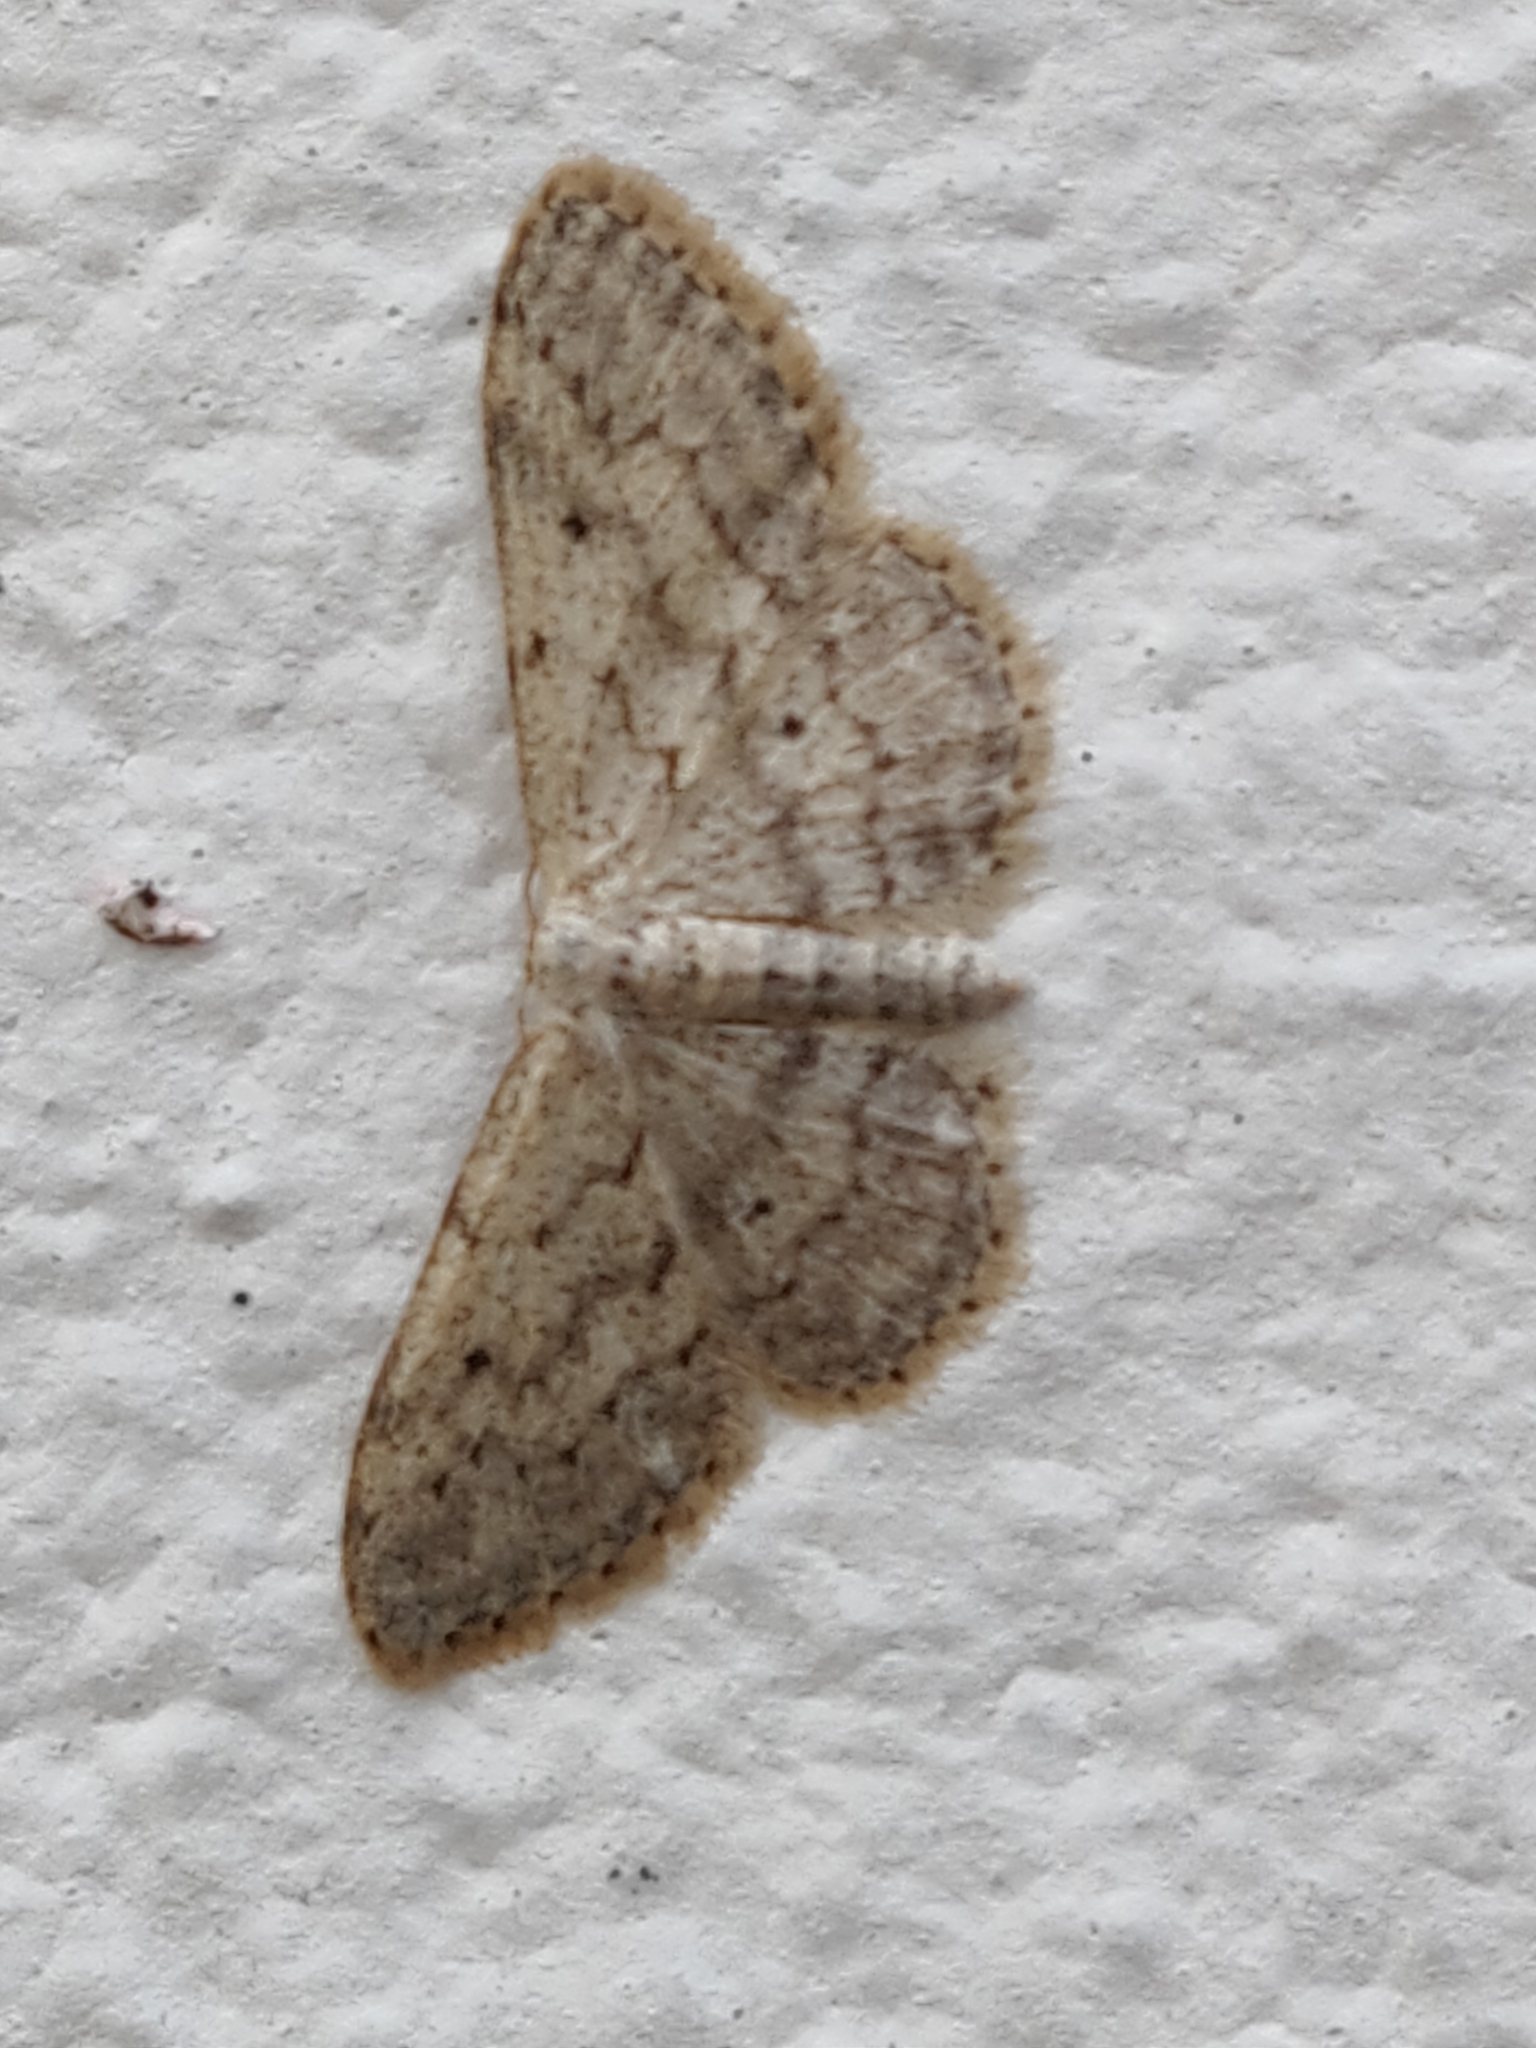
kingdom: Animalia
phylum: Arthropoda
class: Insecta
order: Lepidoptera
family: Geometridae
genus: Idaea
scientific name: Idaea seriata
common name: Small dusty wave
